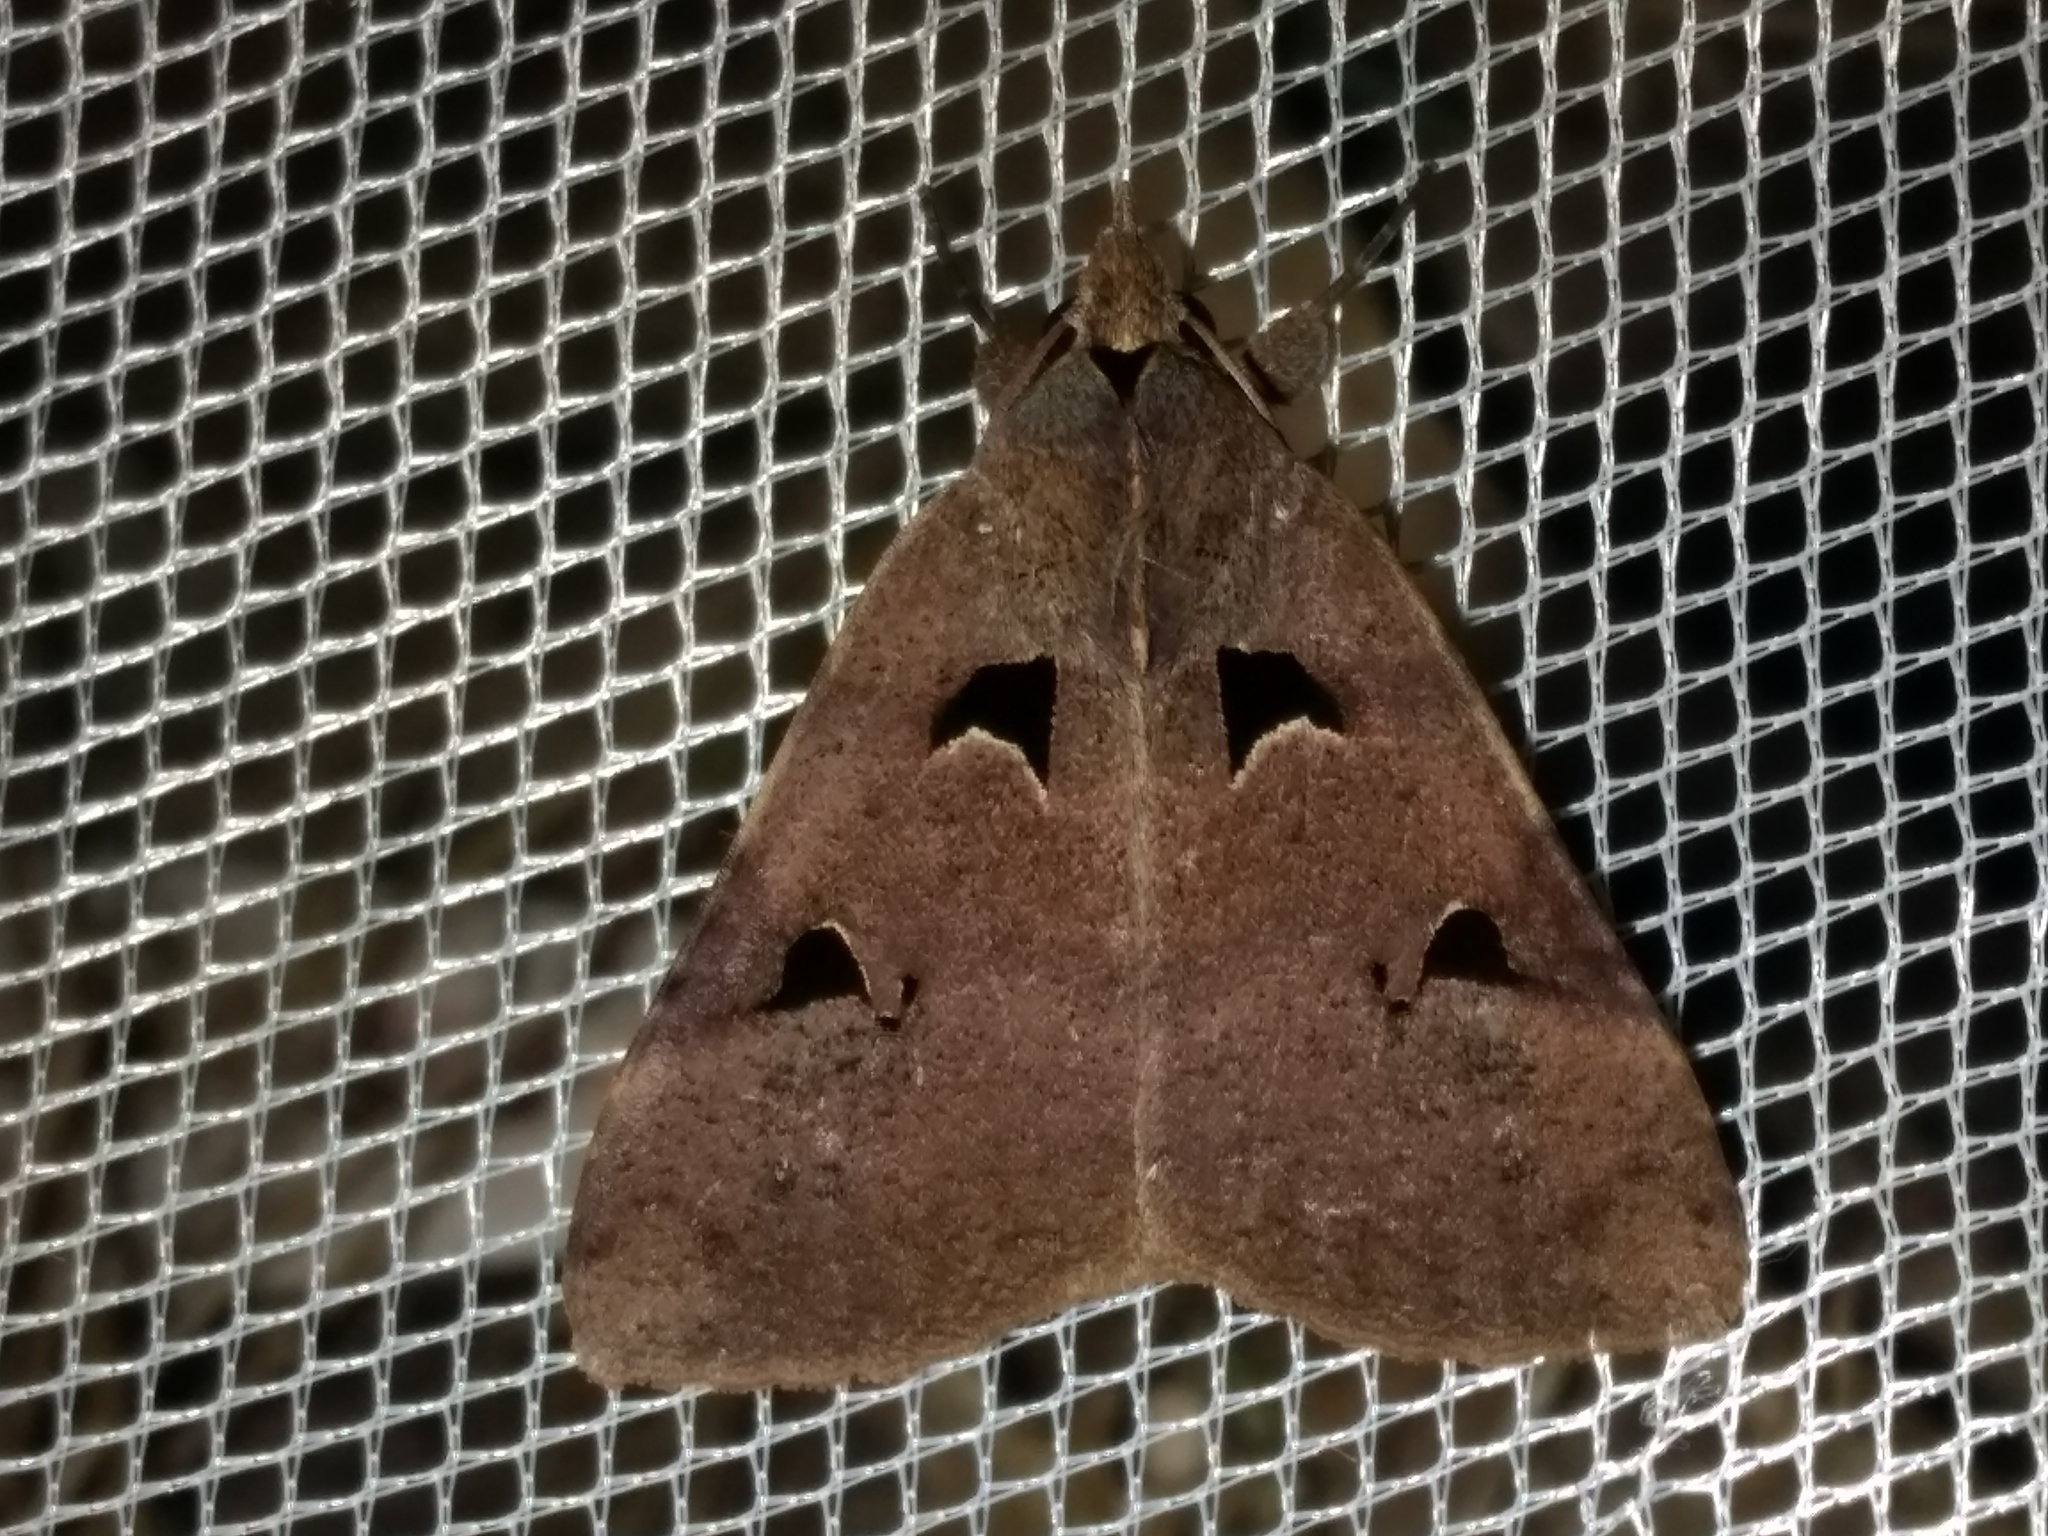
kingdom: Animalia
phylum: Arthropoda
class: Insecta
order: Lepidoptera
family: Erebidae
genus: Avatha
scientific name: Avatha discolor
